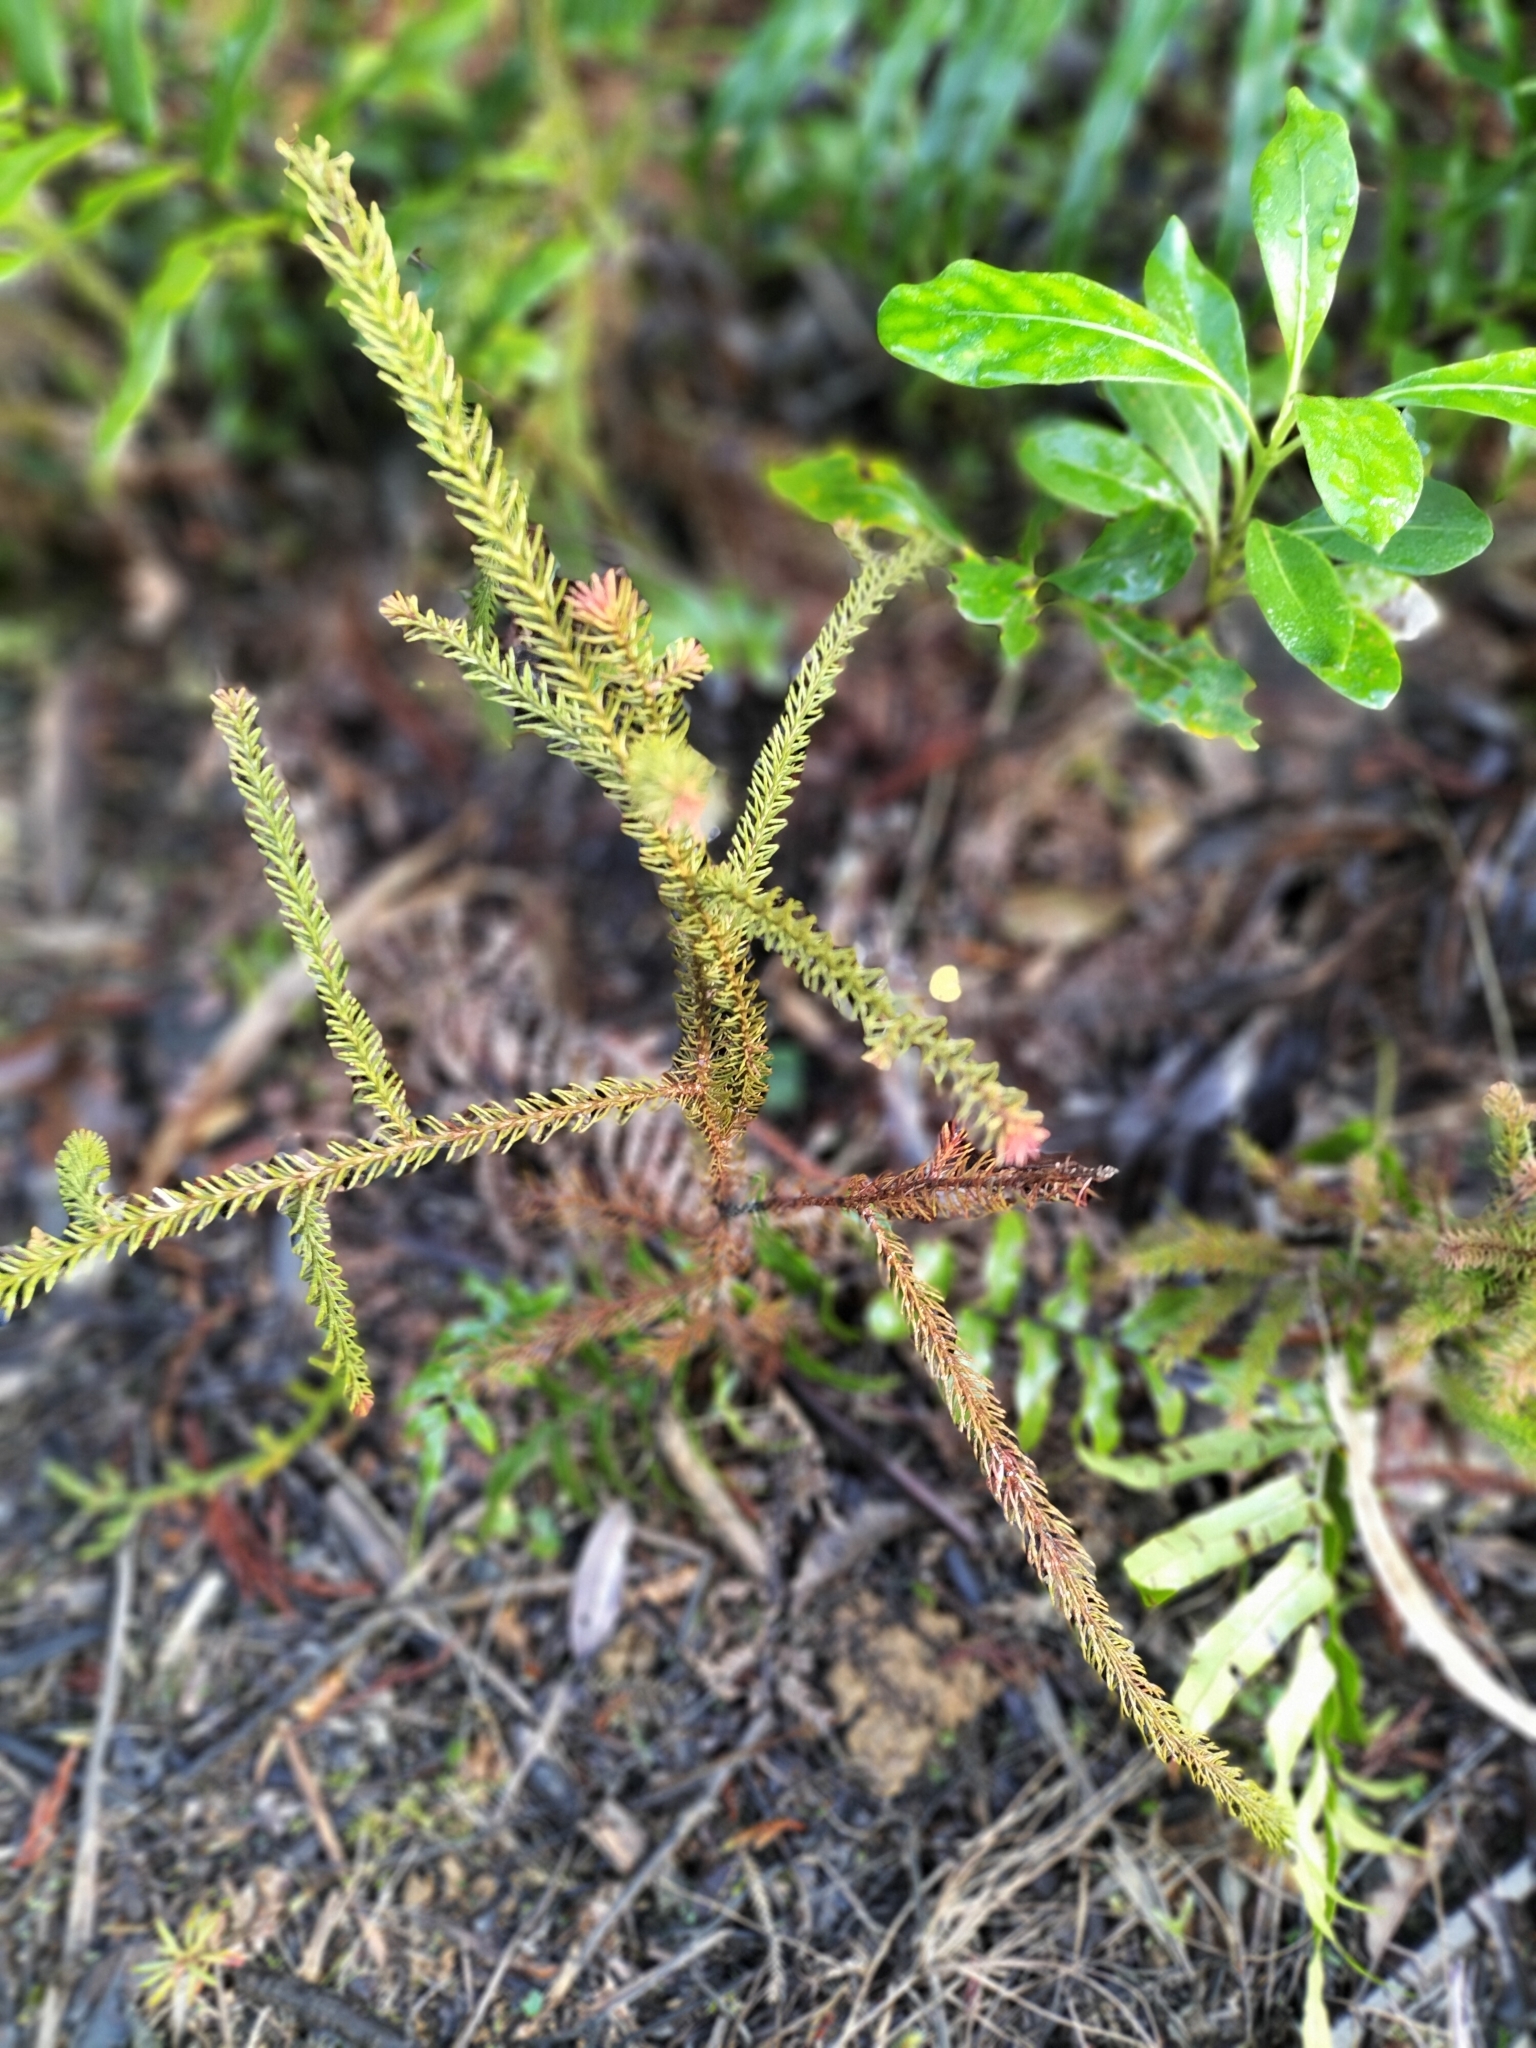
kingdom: Plantae
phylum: Tracheophyta
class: Pinopsida
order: Pinales
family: Podocarpaceae
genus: Dacrydium
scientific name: Dacrydium cupressinum
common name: Red pine
